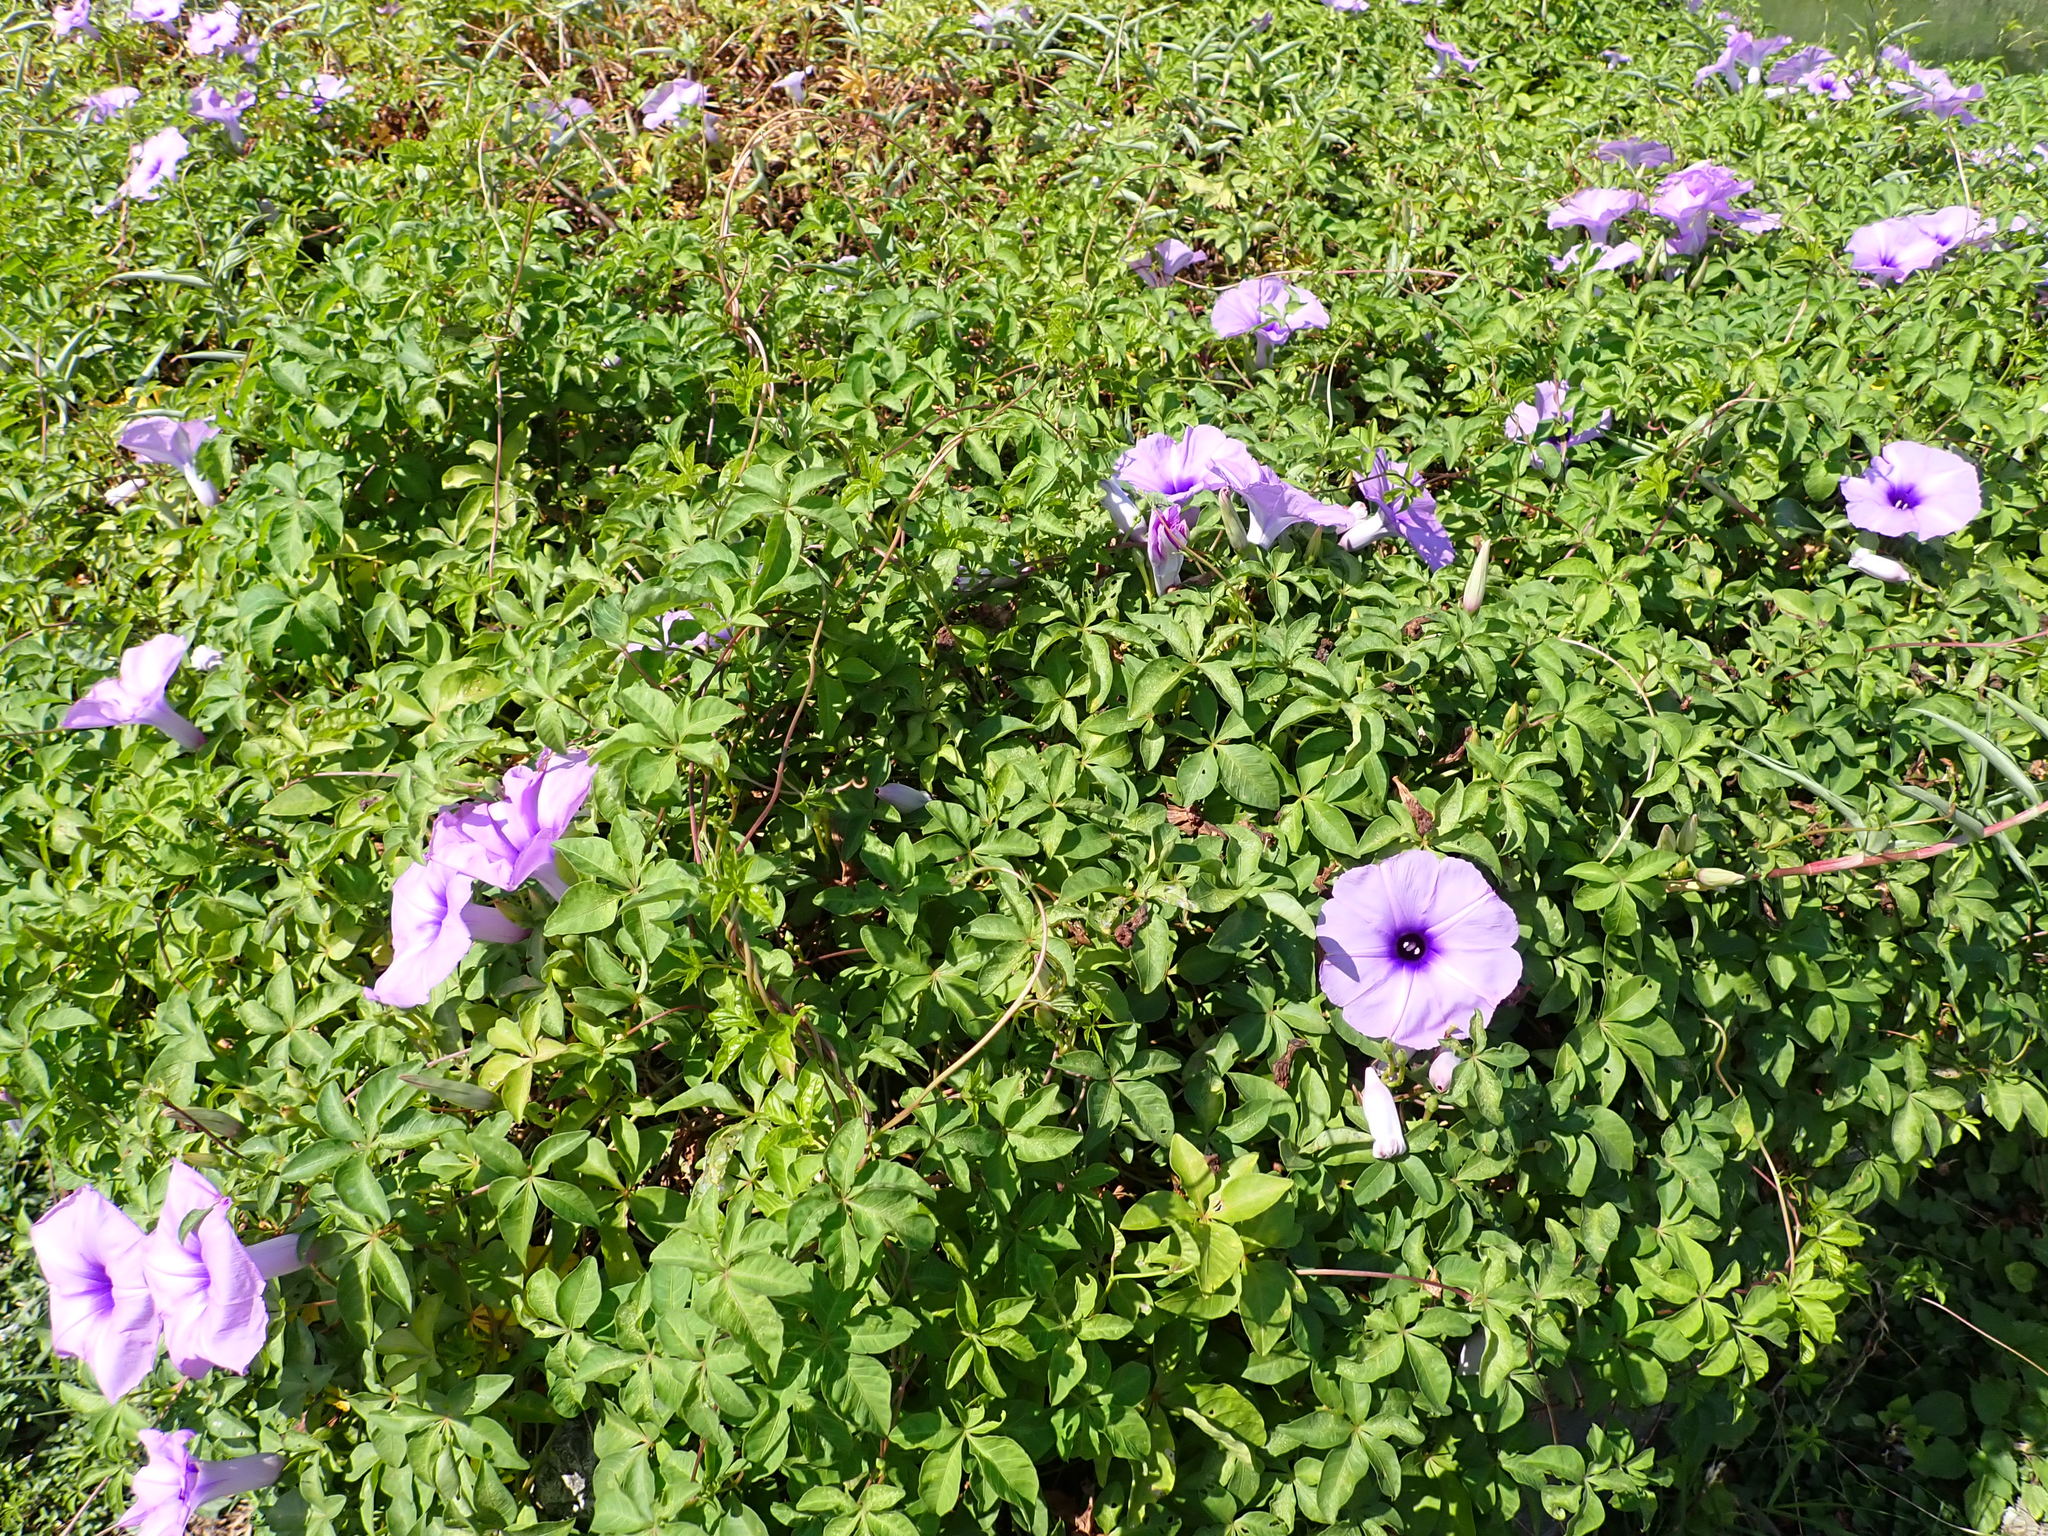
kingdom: Plantae
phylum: Tracheophyta
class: Magnoliopsida
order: Solanales
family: Convolvulaceae
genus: Ipomoea
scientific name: Ipomoea cairica
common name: Mile a minute vine
